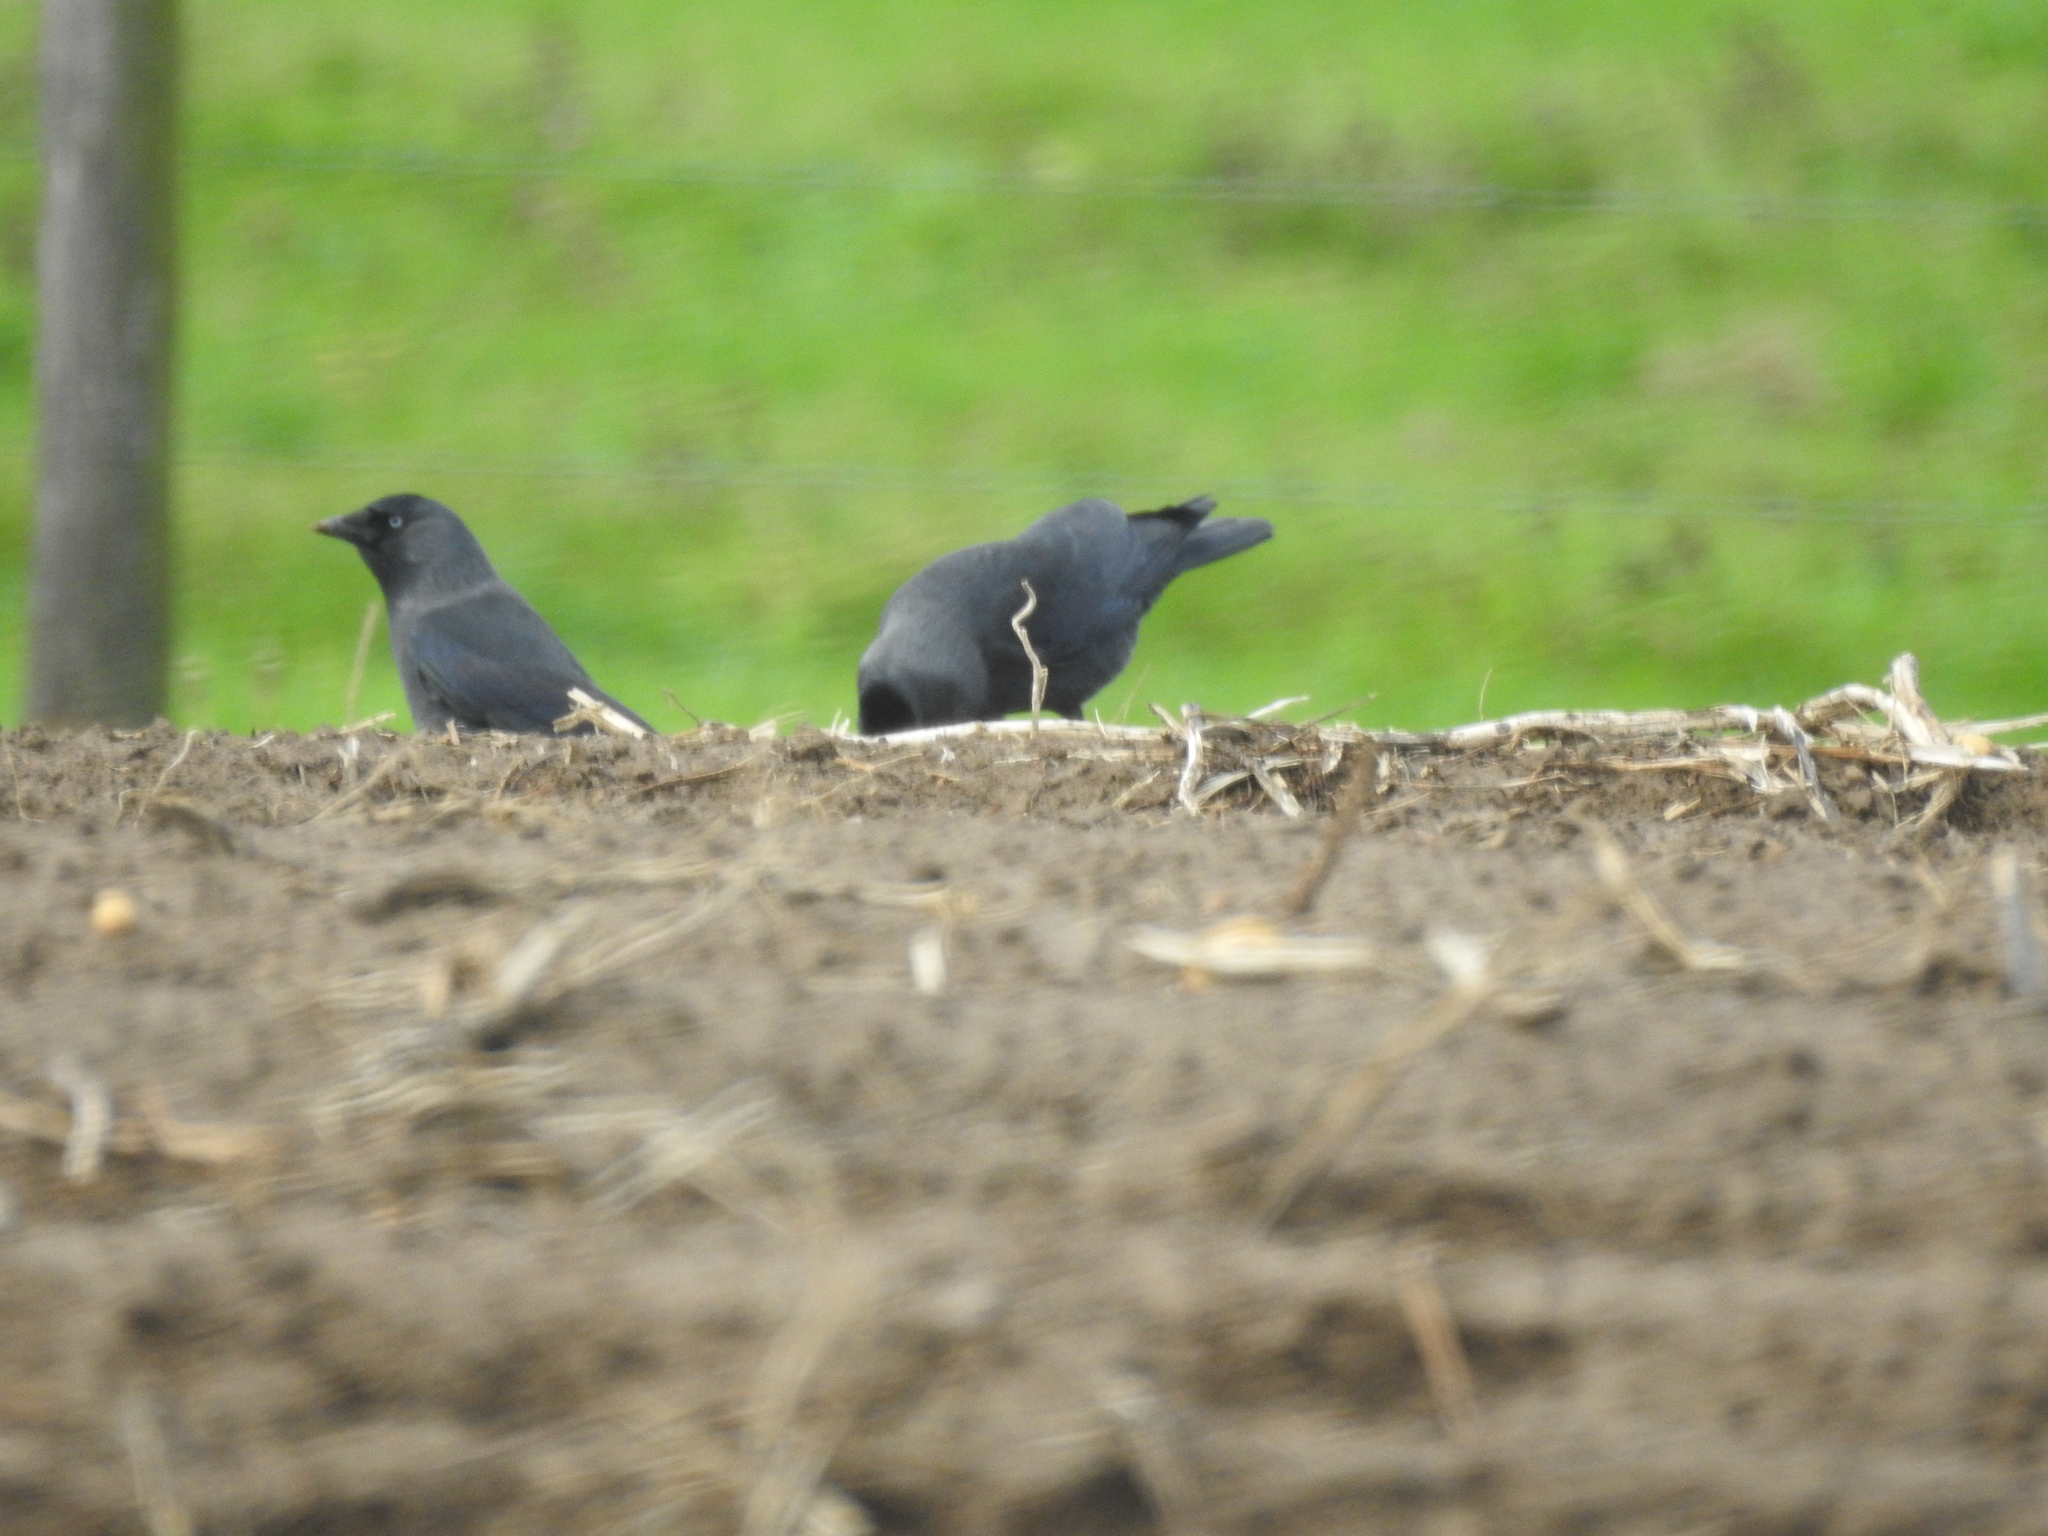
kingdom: Animalia
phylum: Chordata
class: Aves
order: Passeriformes
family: Corvidae
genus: Coloeus
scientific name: Coloeus monedula
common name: Western jackdaw
